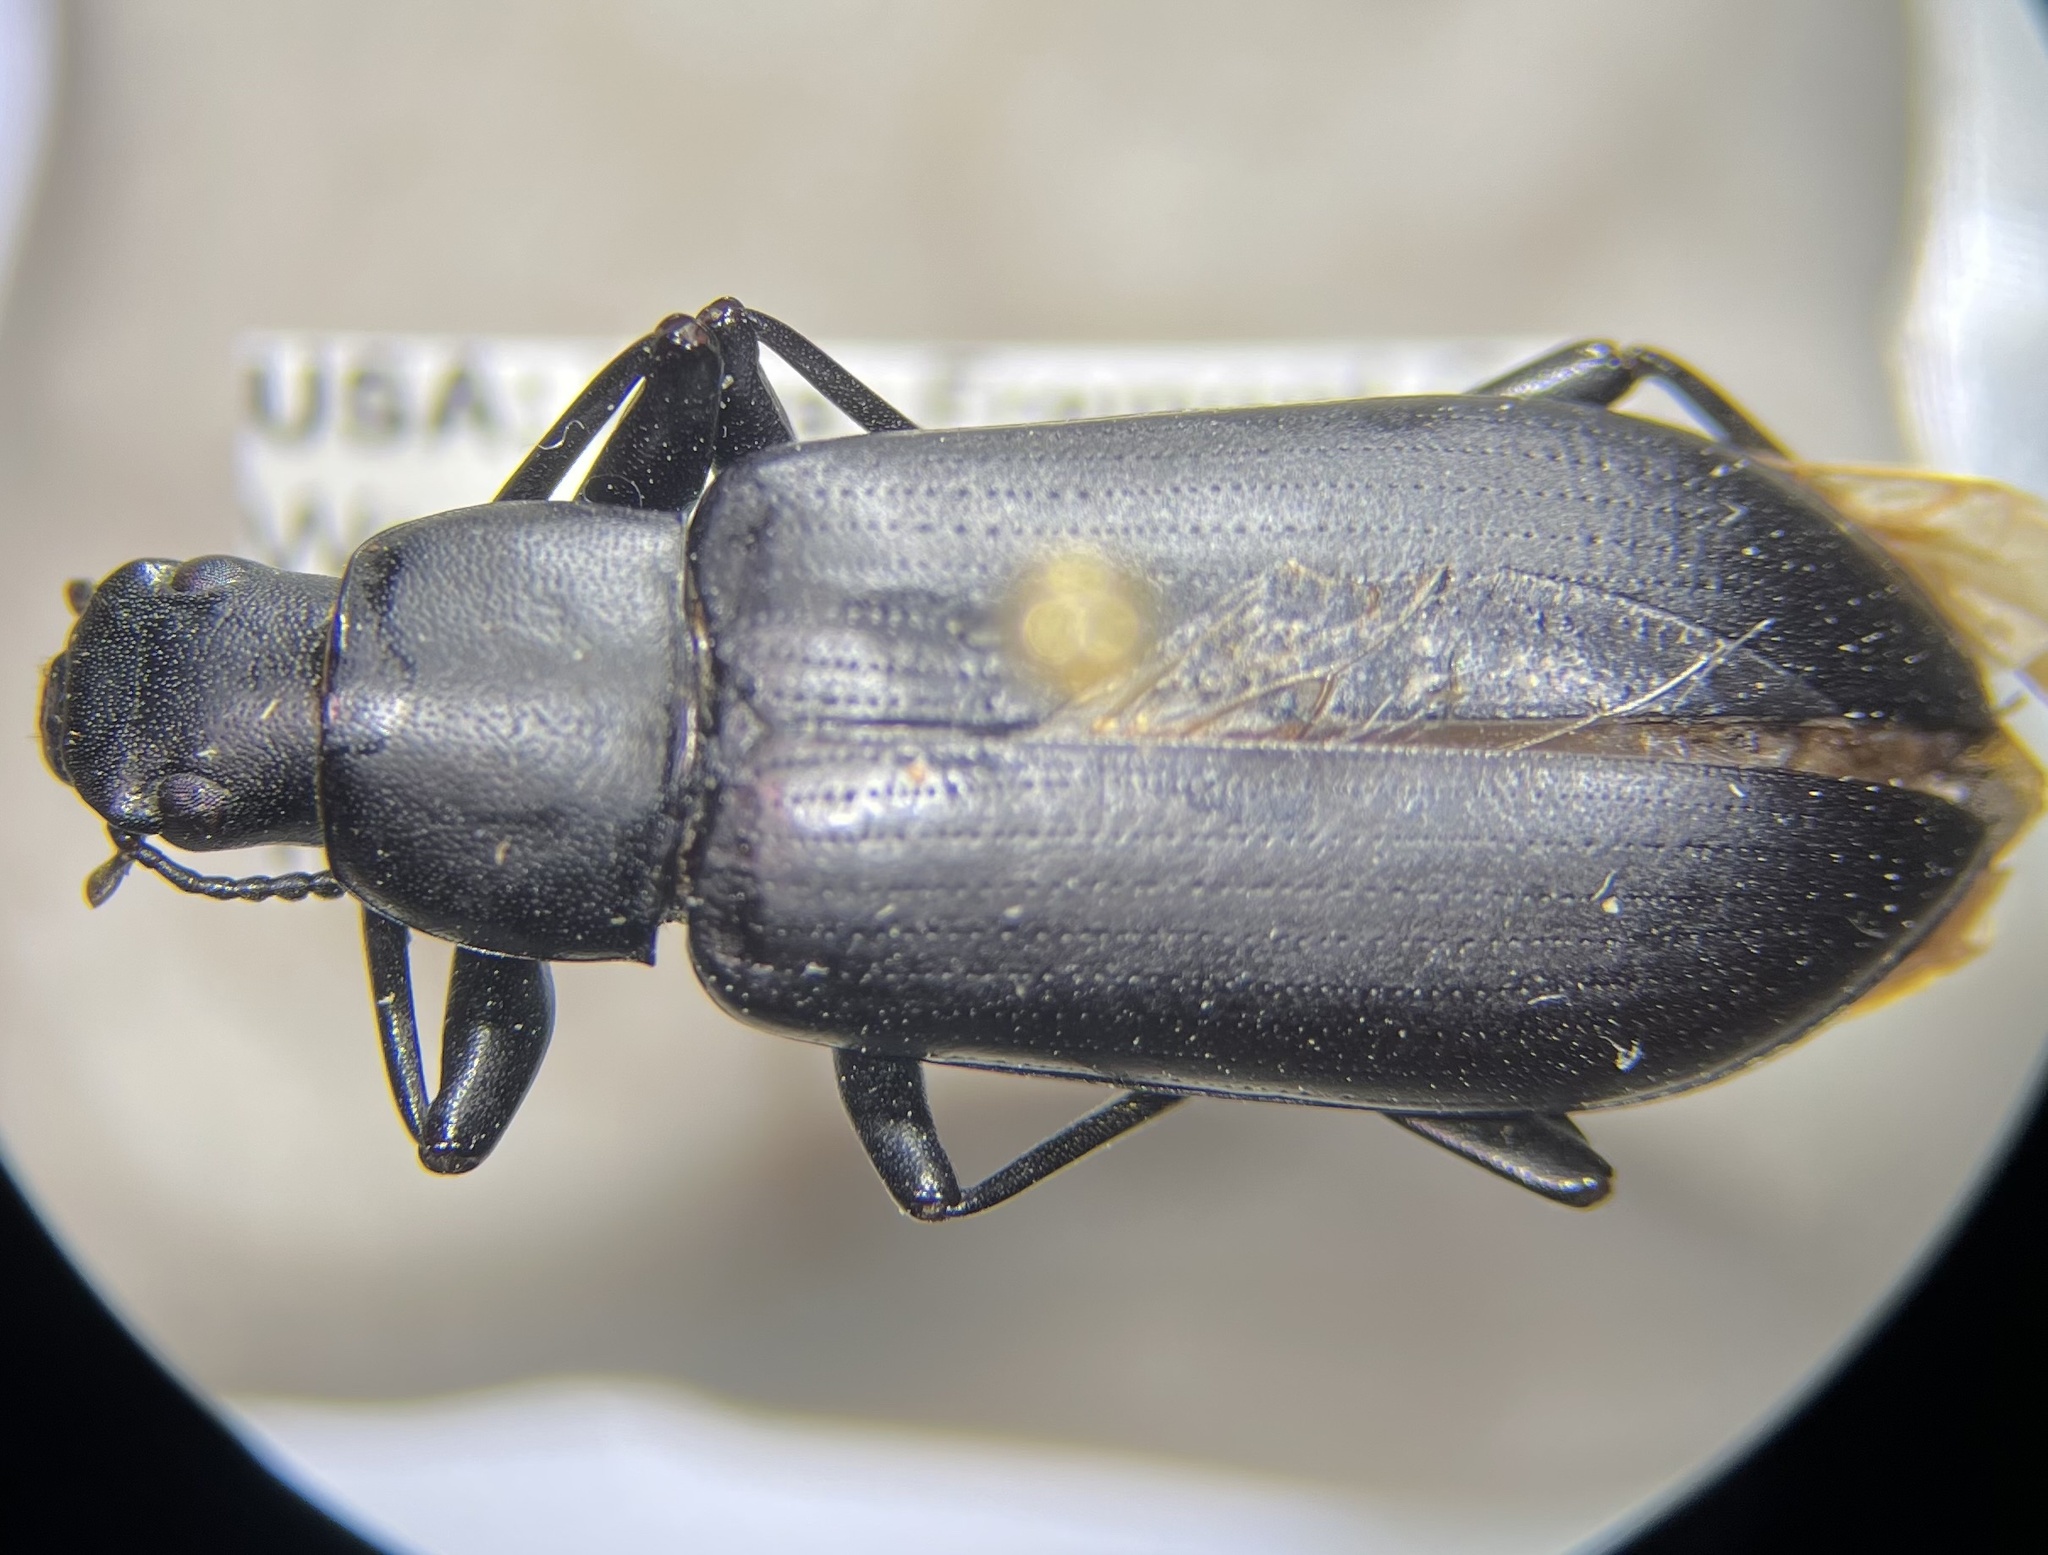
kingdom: Animalia
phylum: Arthropoda
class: Insecta
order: Coleoptera
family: Tenebrionidae
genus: Alobates
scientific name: Alobates pensylvanicus
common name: False mealworm beetle
